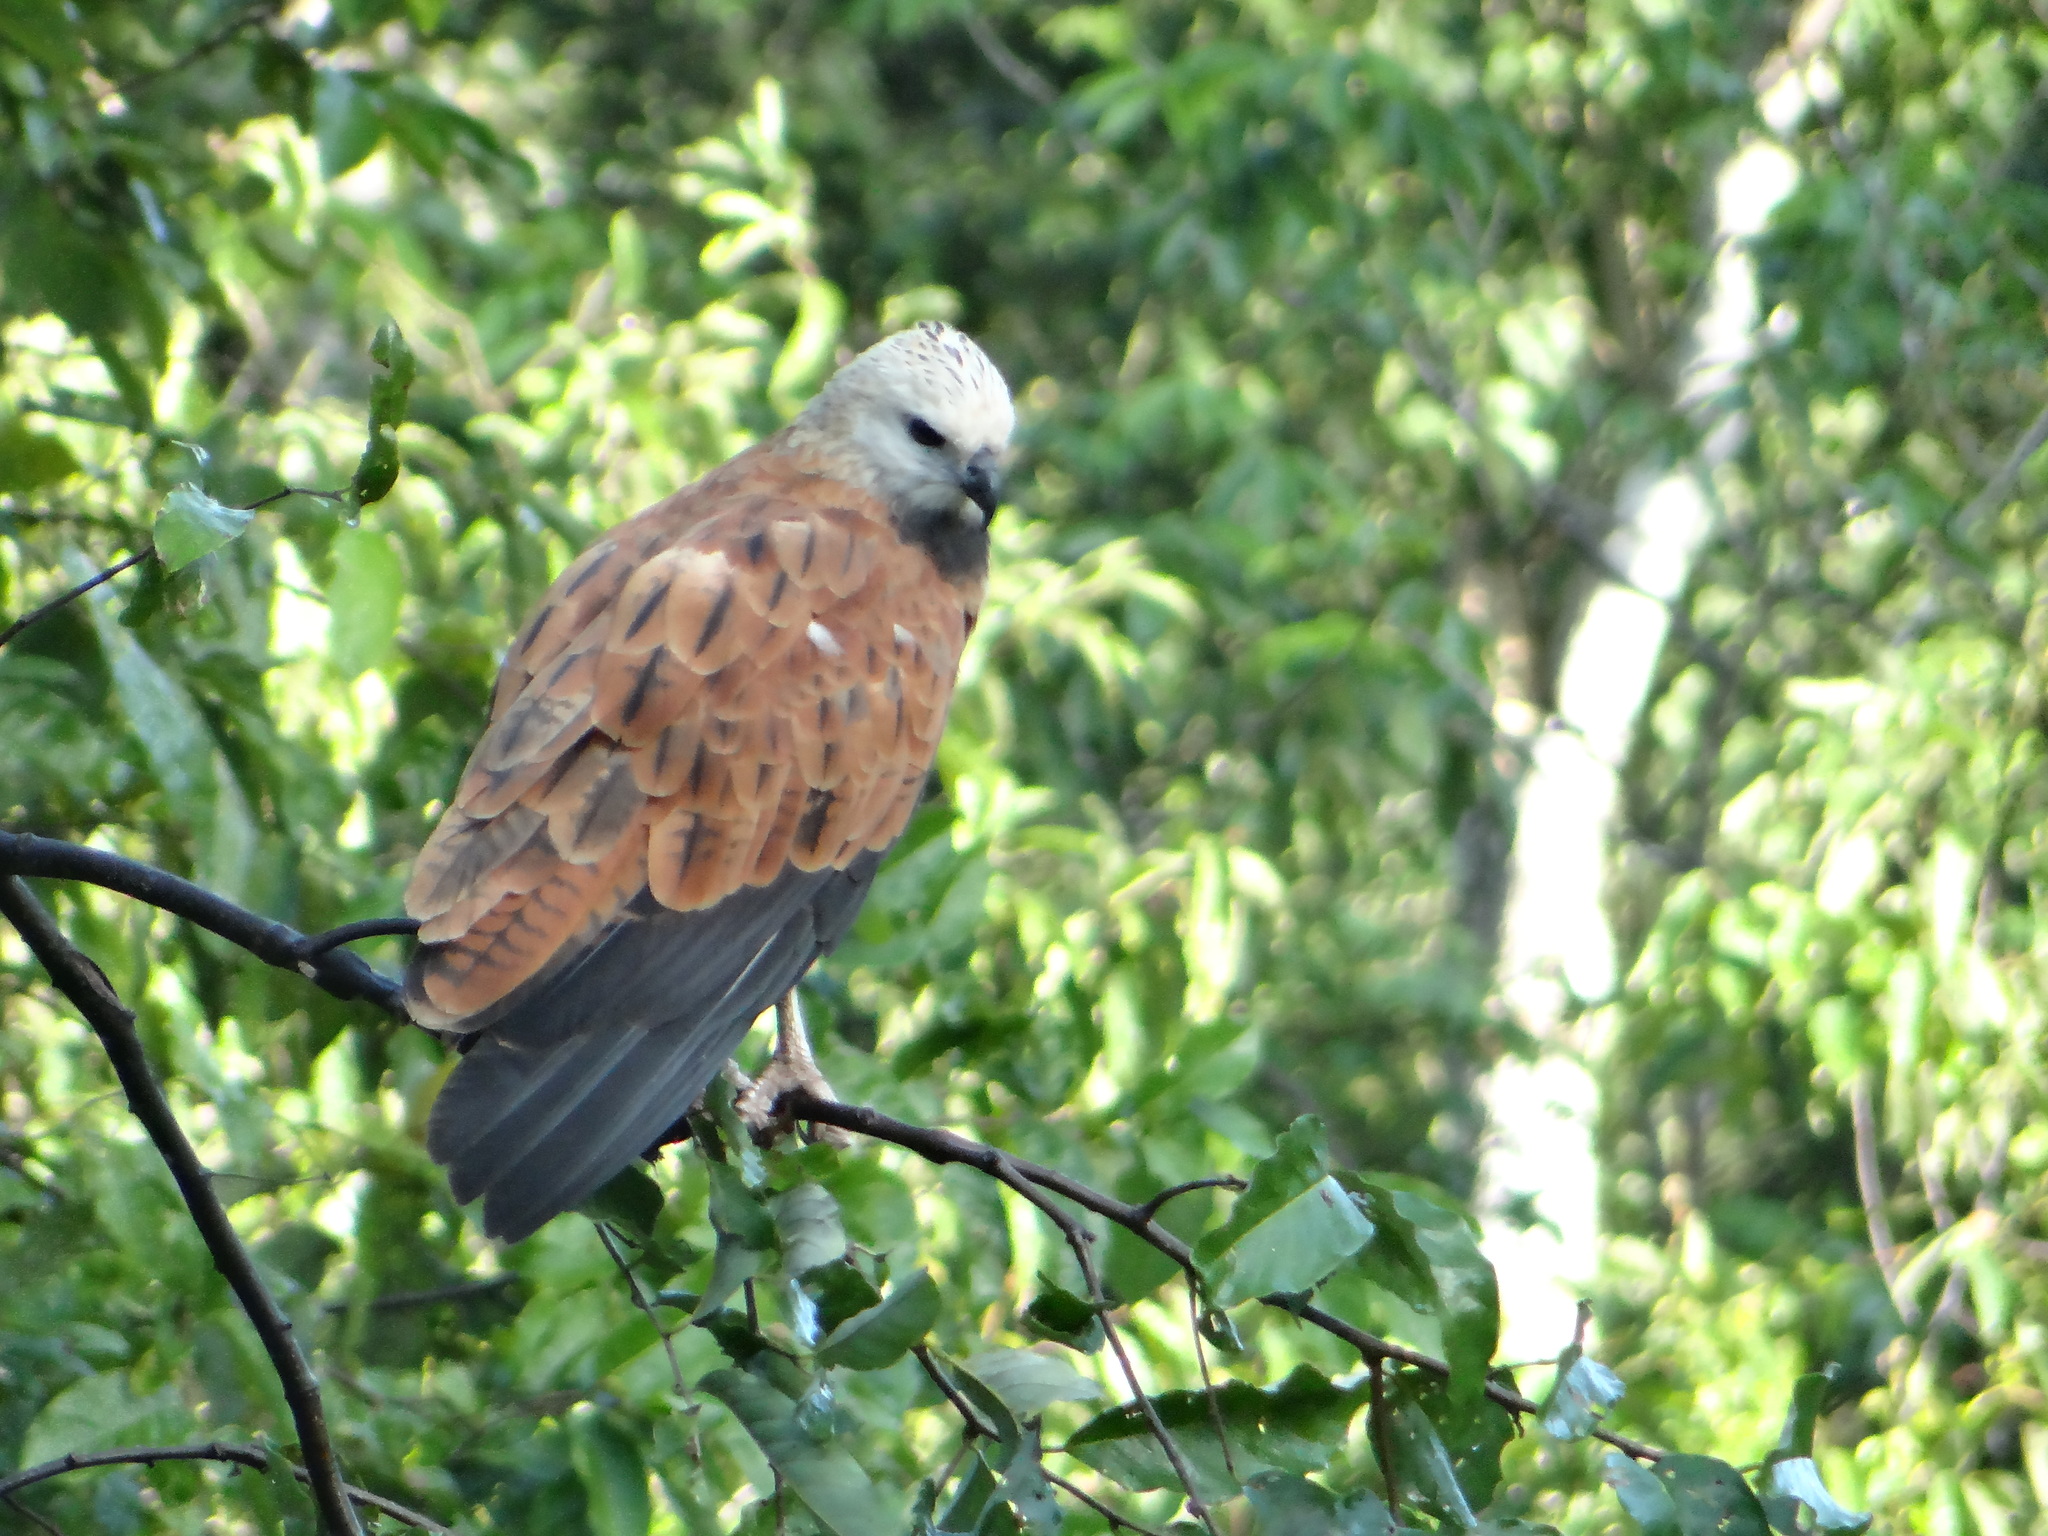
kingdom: Animalia
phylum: Chordata
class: Aves
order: Accipitriformes
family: Accipitridae
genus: Busarellus
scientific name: Busarellus nigricollis
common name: Black-collared hawk
